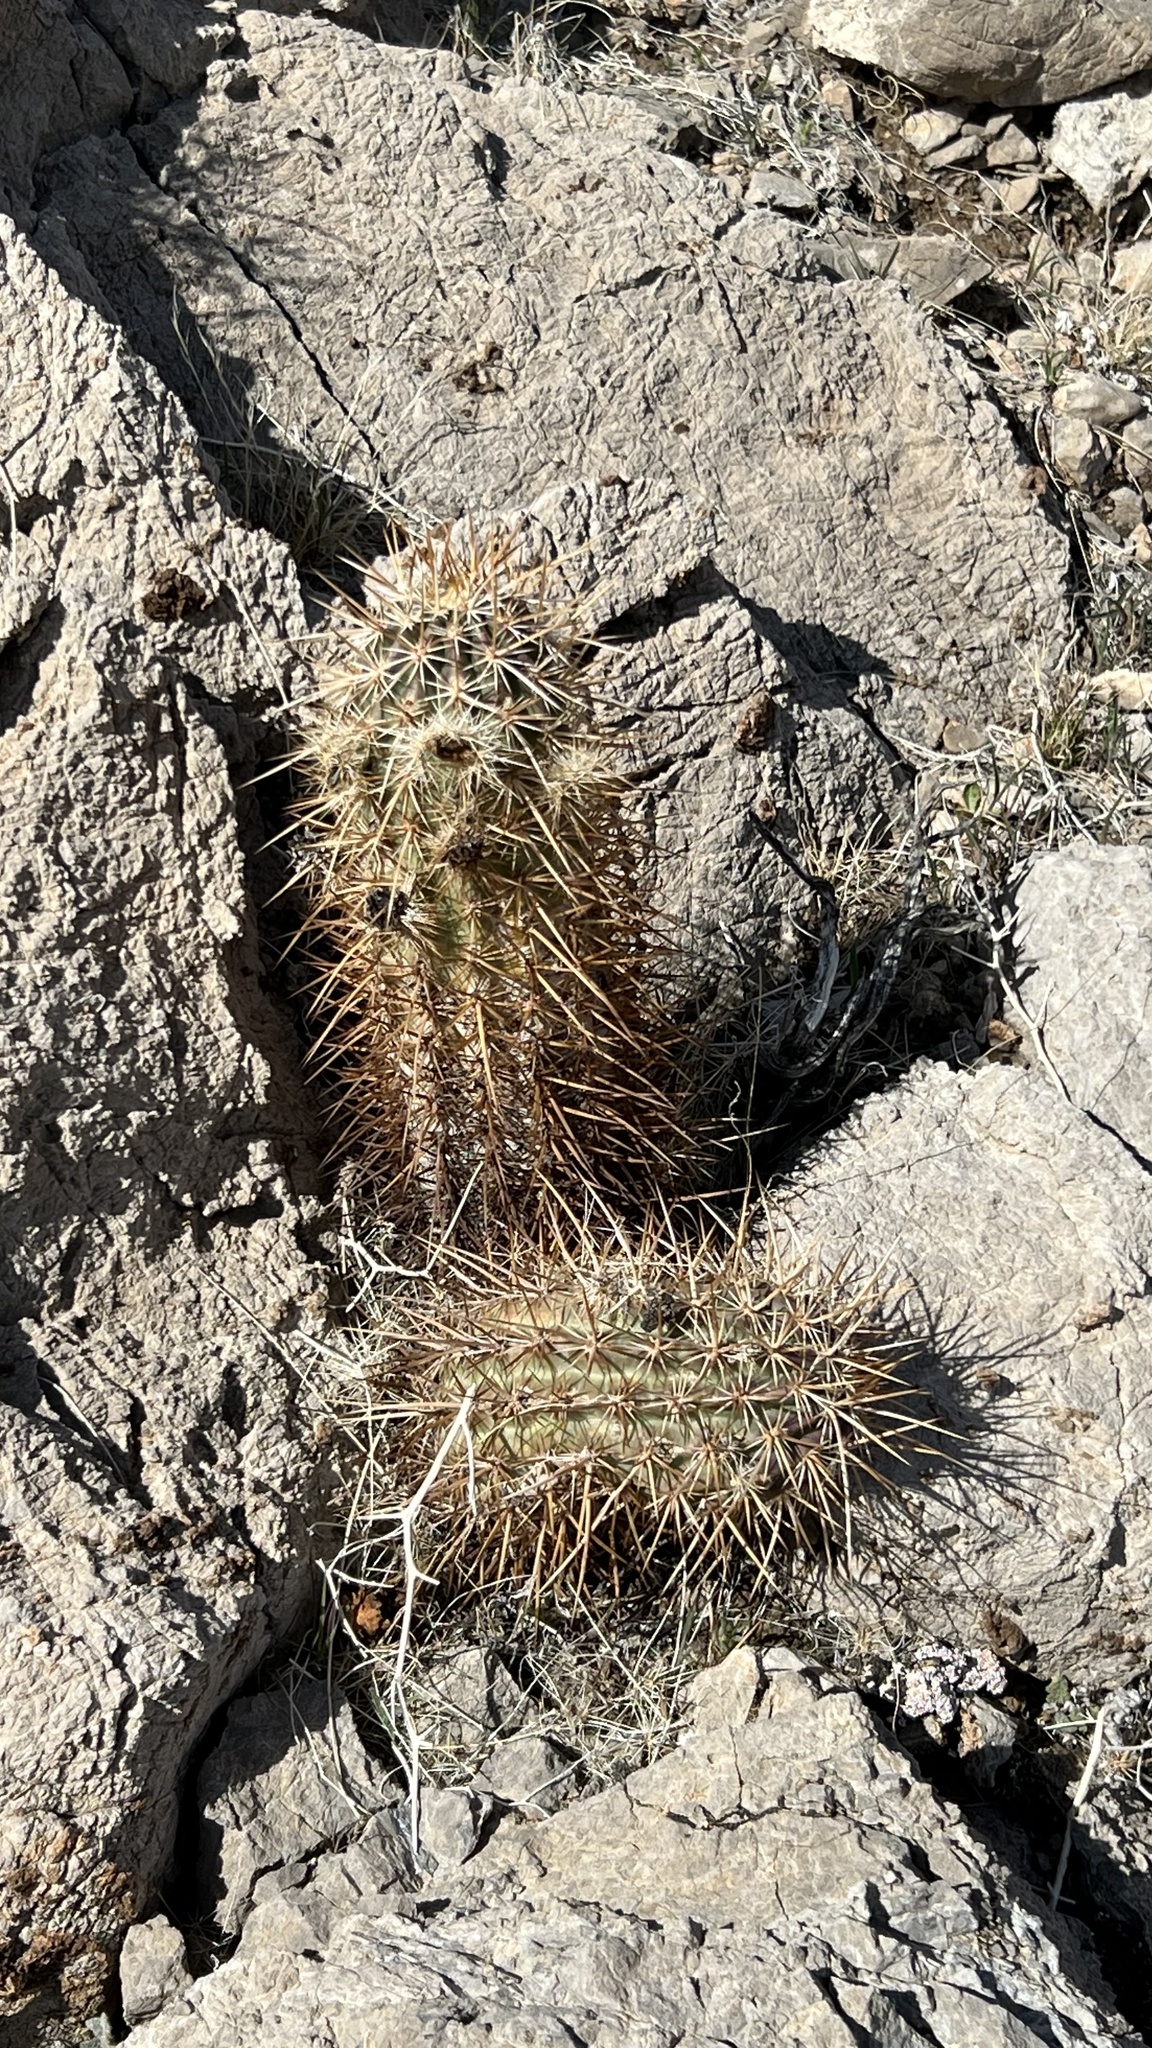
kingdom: Plantae
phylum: Tracheophyta
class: Magnoliopsida
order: Caryophyllales
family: Cactaceae
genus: Echinocereus
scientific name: Echinocereus engelmannii
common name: Engelmann's hedgehog cactus
